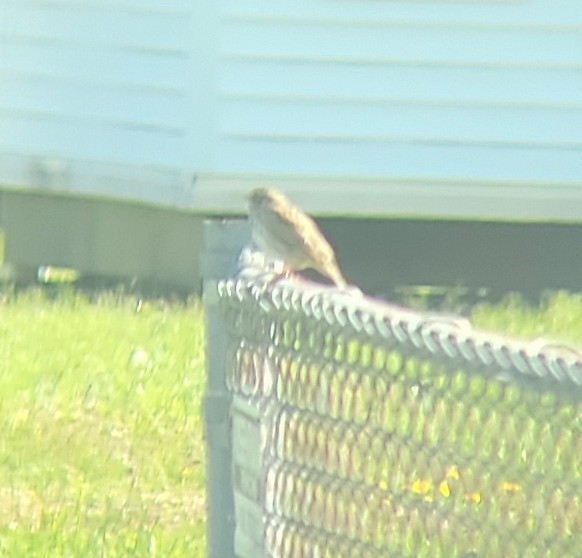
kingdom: Animalia
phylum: Chordata
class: Aves
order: Passeriformes
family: Passerellidae
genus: Passerculus
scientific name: Passerculus sandwichensis
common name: Savannah sparrow
